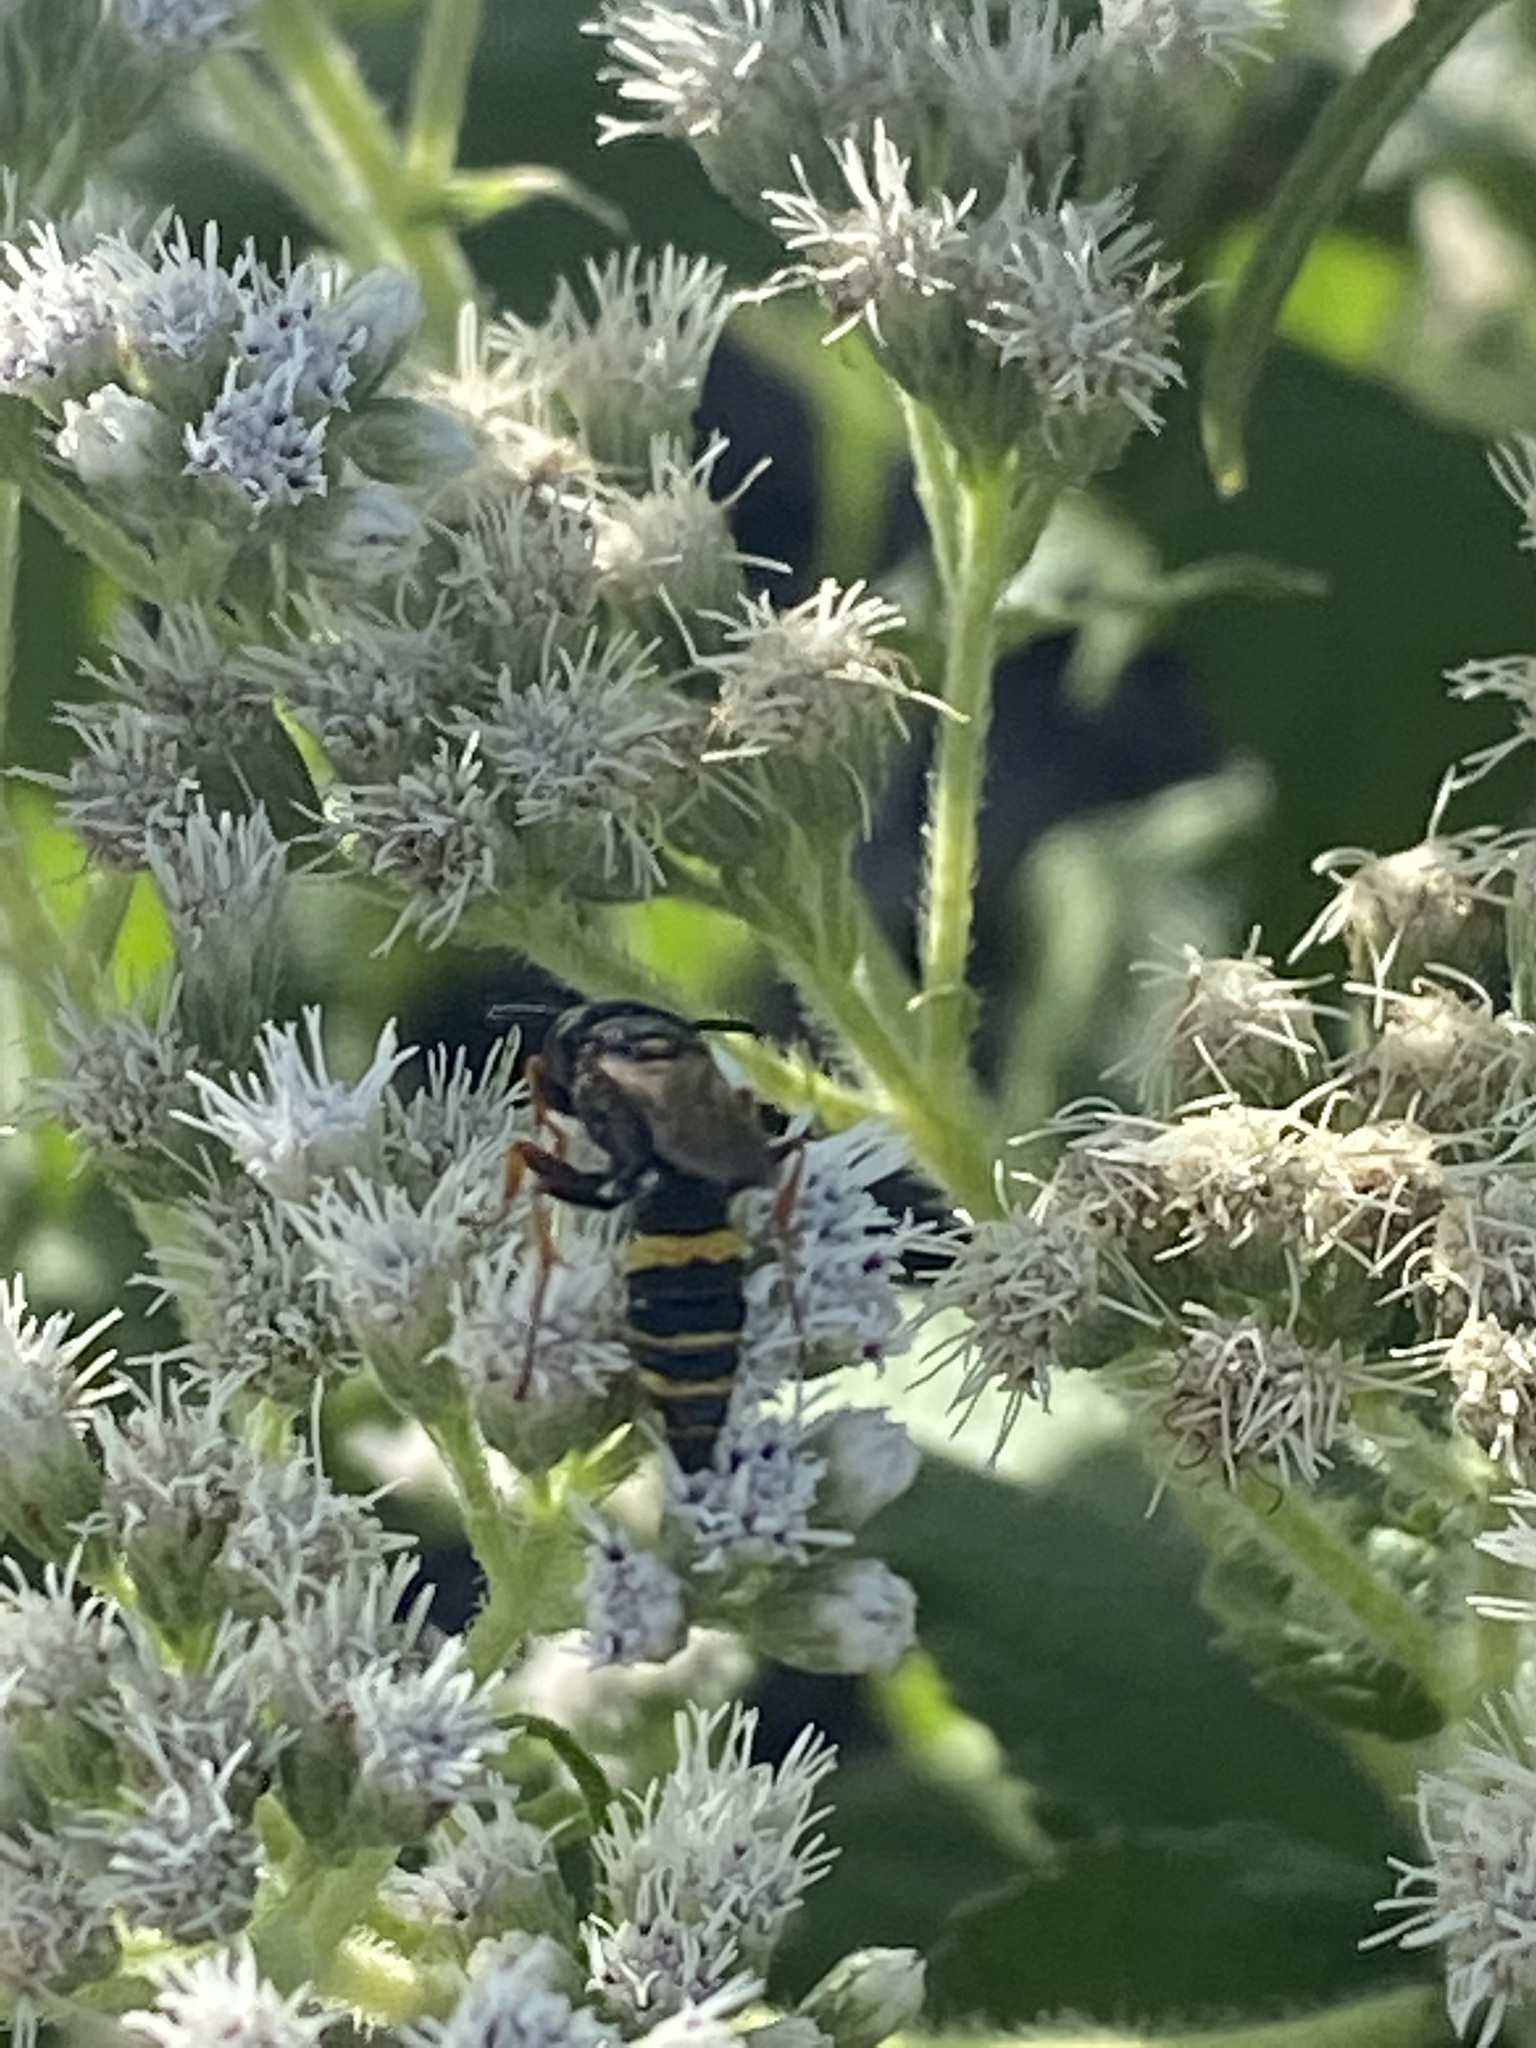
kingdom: Animalia
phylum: Arthropoda
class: Insecta
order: Hymenoptera
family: Crabronidae
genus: Philanthus
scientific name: Philanthus gibbosus
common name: Humped beewolf
